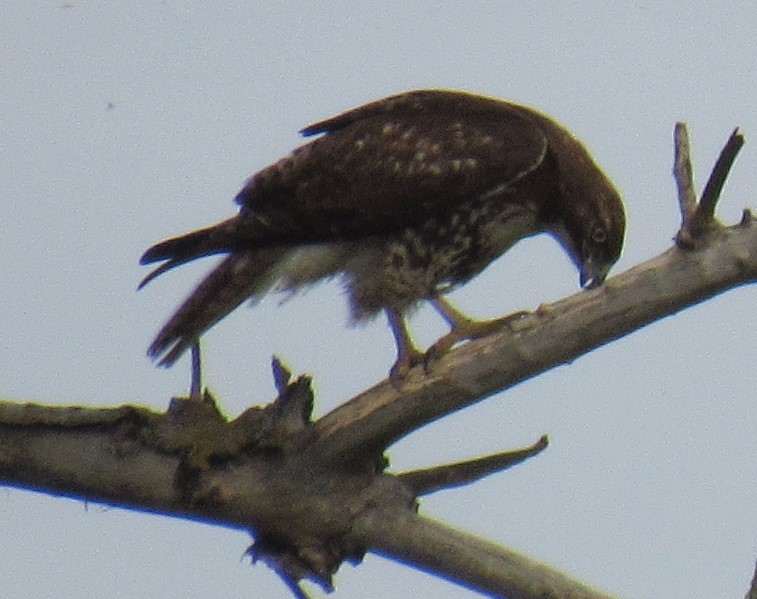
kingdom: Animalia
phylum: Chordata
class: Aves
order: Accipitriformes
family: Accipitridae
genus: Buteo
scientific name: Buteo jamaicensis
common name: Red-tailed hawk
